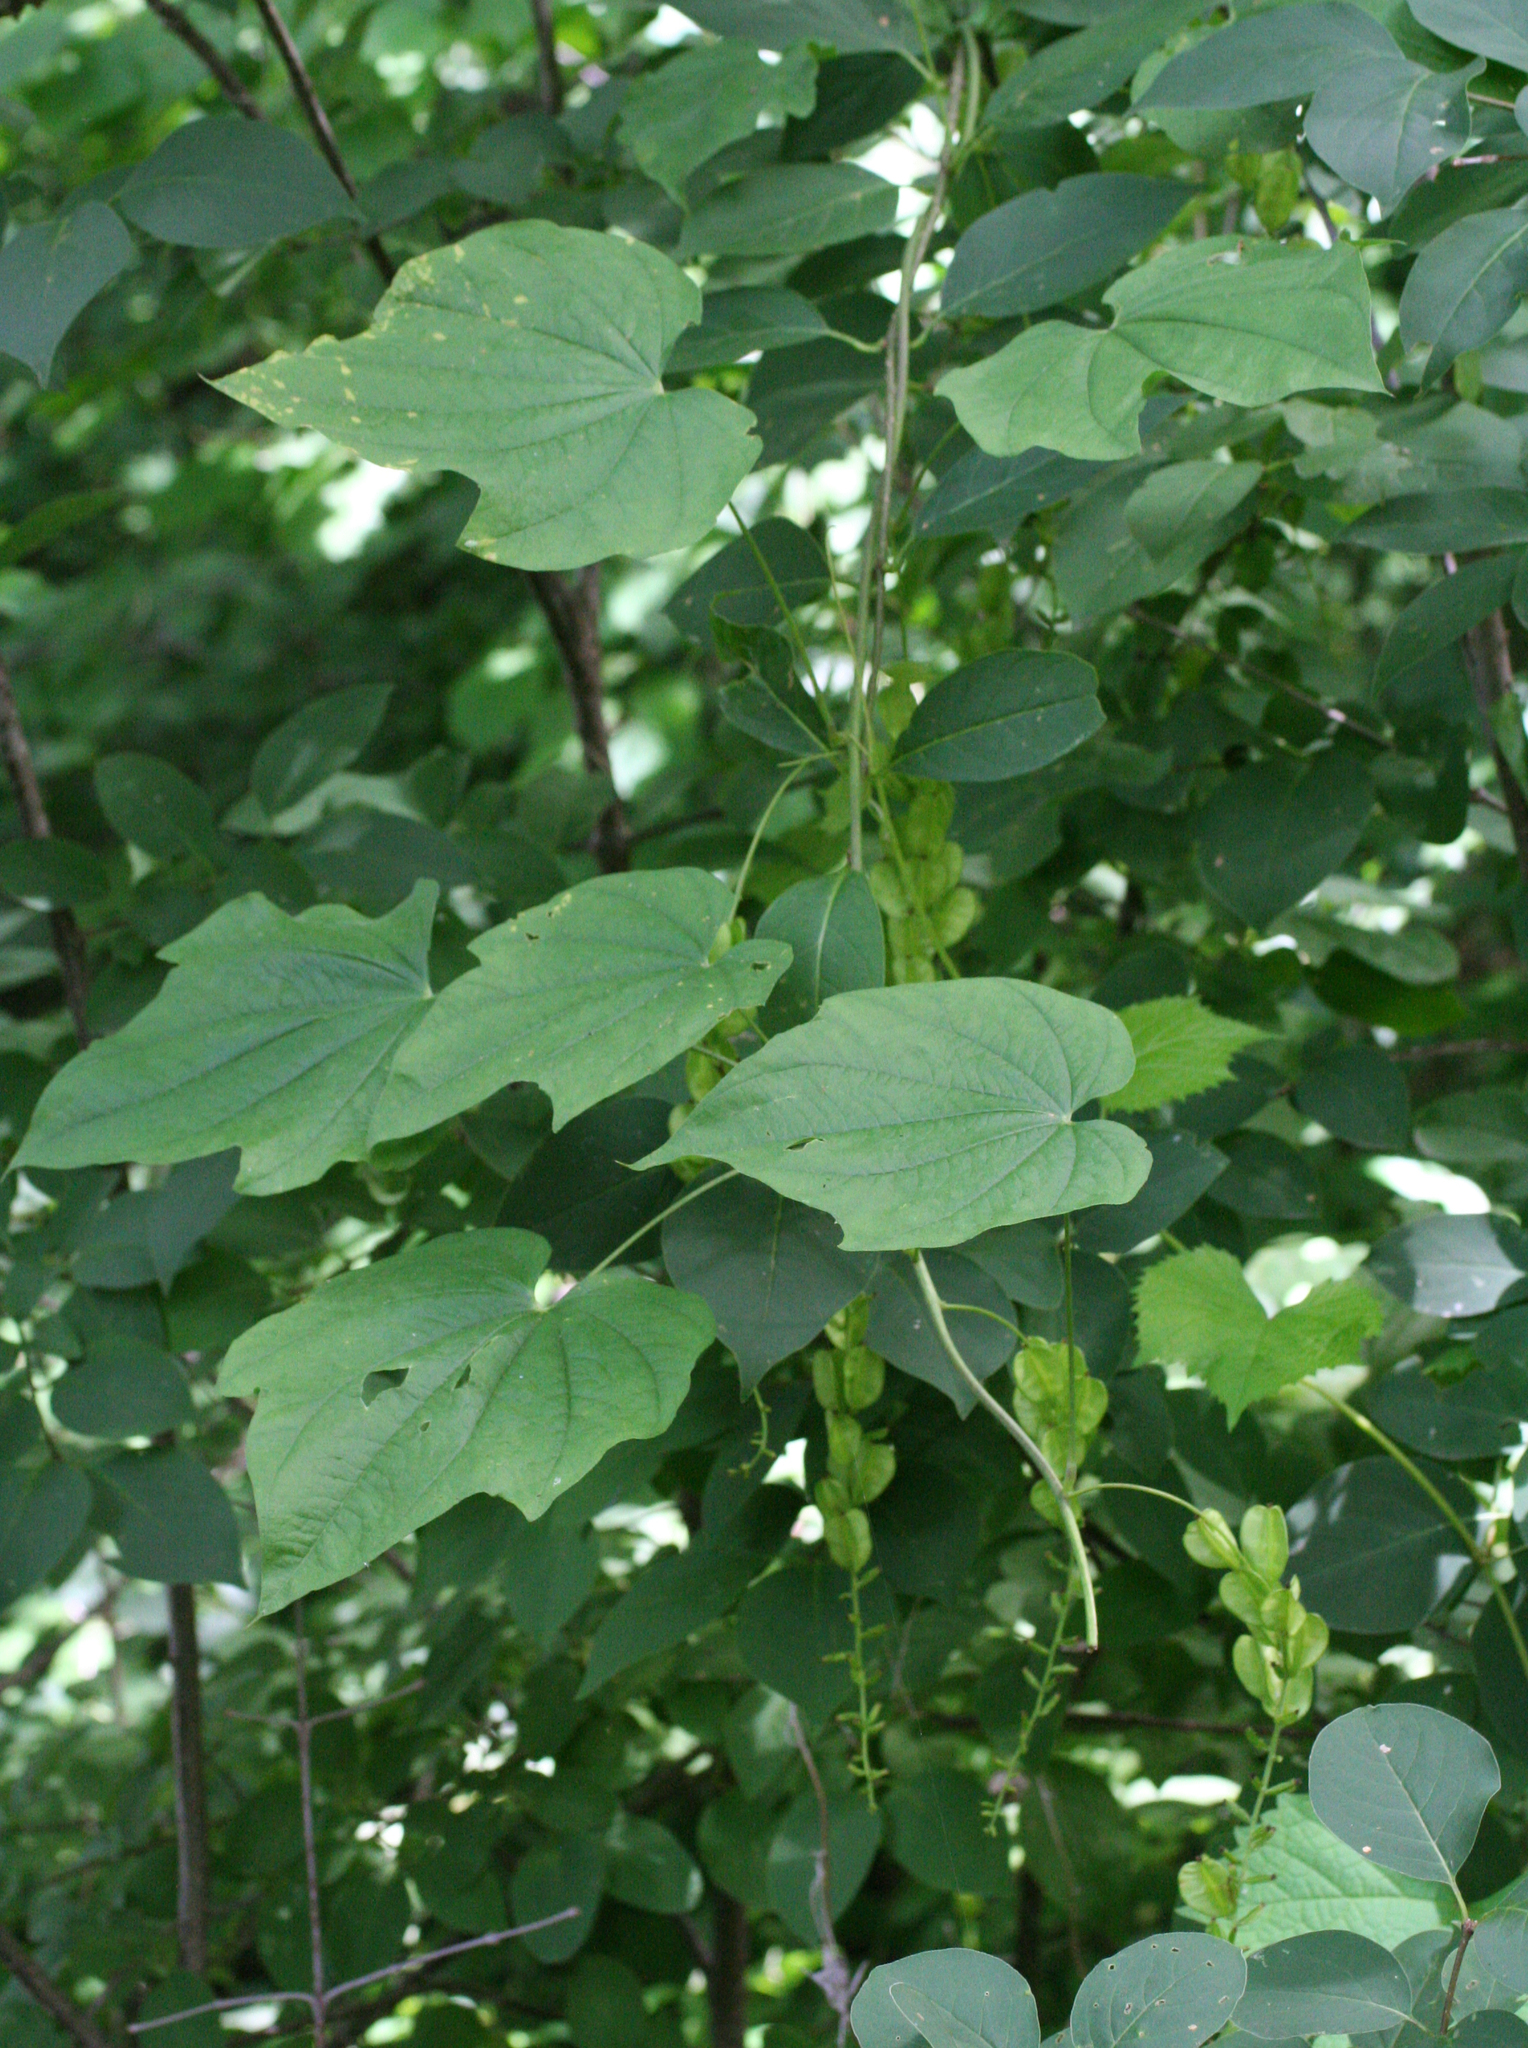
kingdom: Plantae
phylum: Tracheophyta
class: Liliopsida
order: Dioscoreales
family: Dioscoreaceae
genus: Dioscorea
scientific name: Dioscorea nipponica
